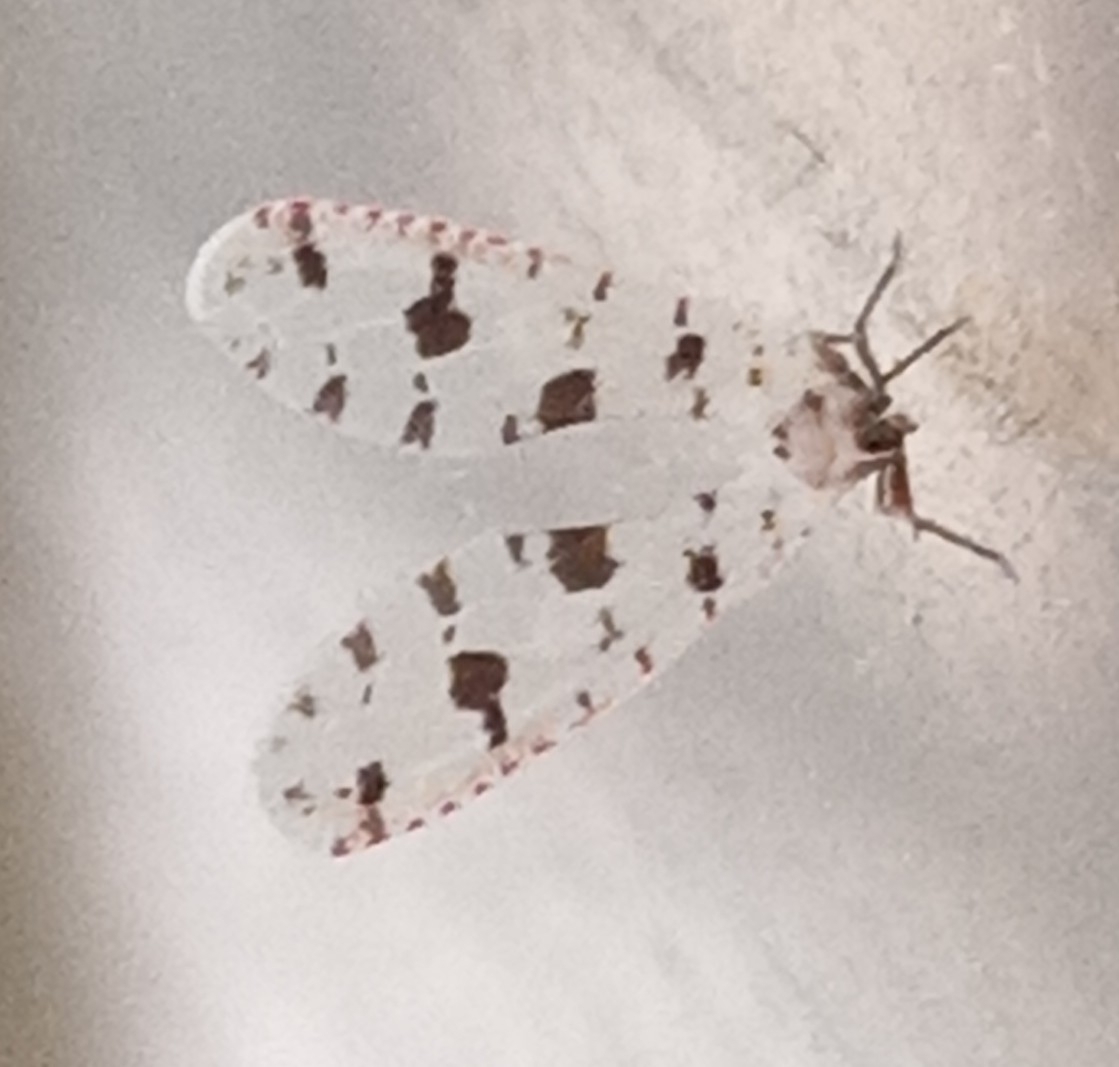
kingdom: Animalia
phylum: Arthropoda
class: Insecta
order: Hemiptera
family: Derbidae
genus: Sikaiana
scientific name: Sikaiana harti
